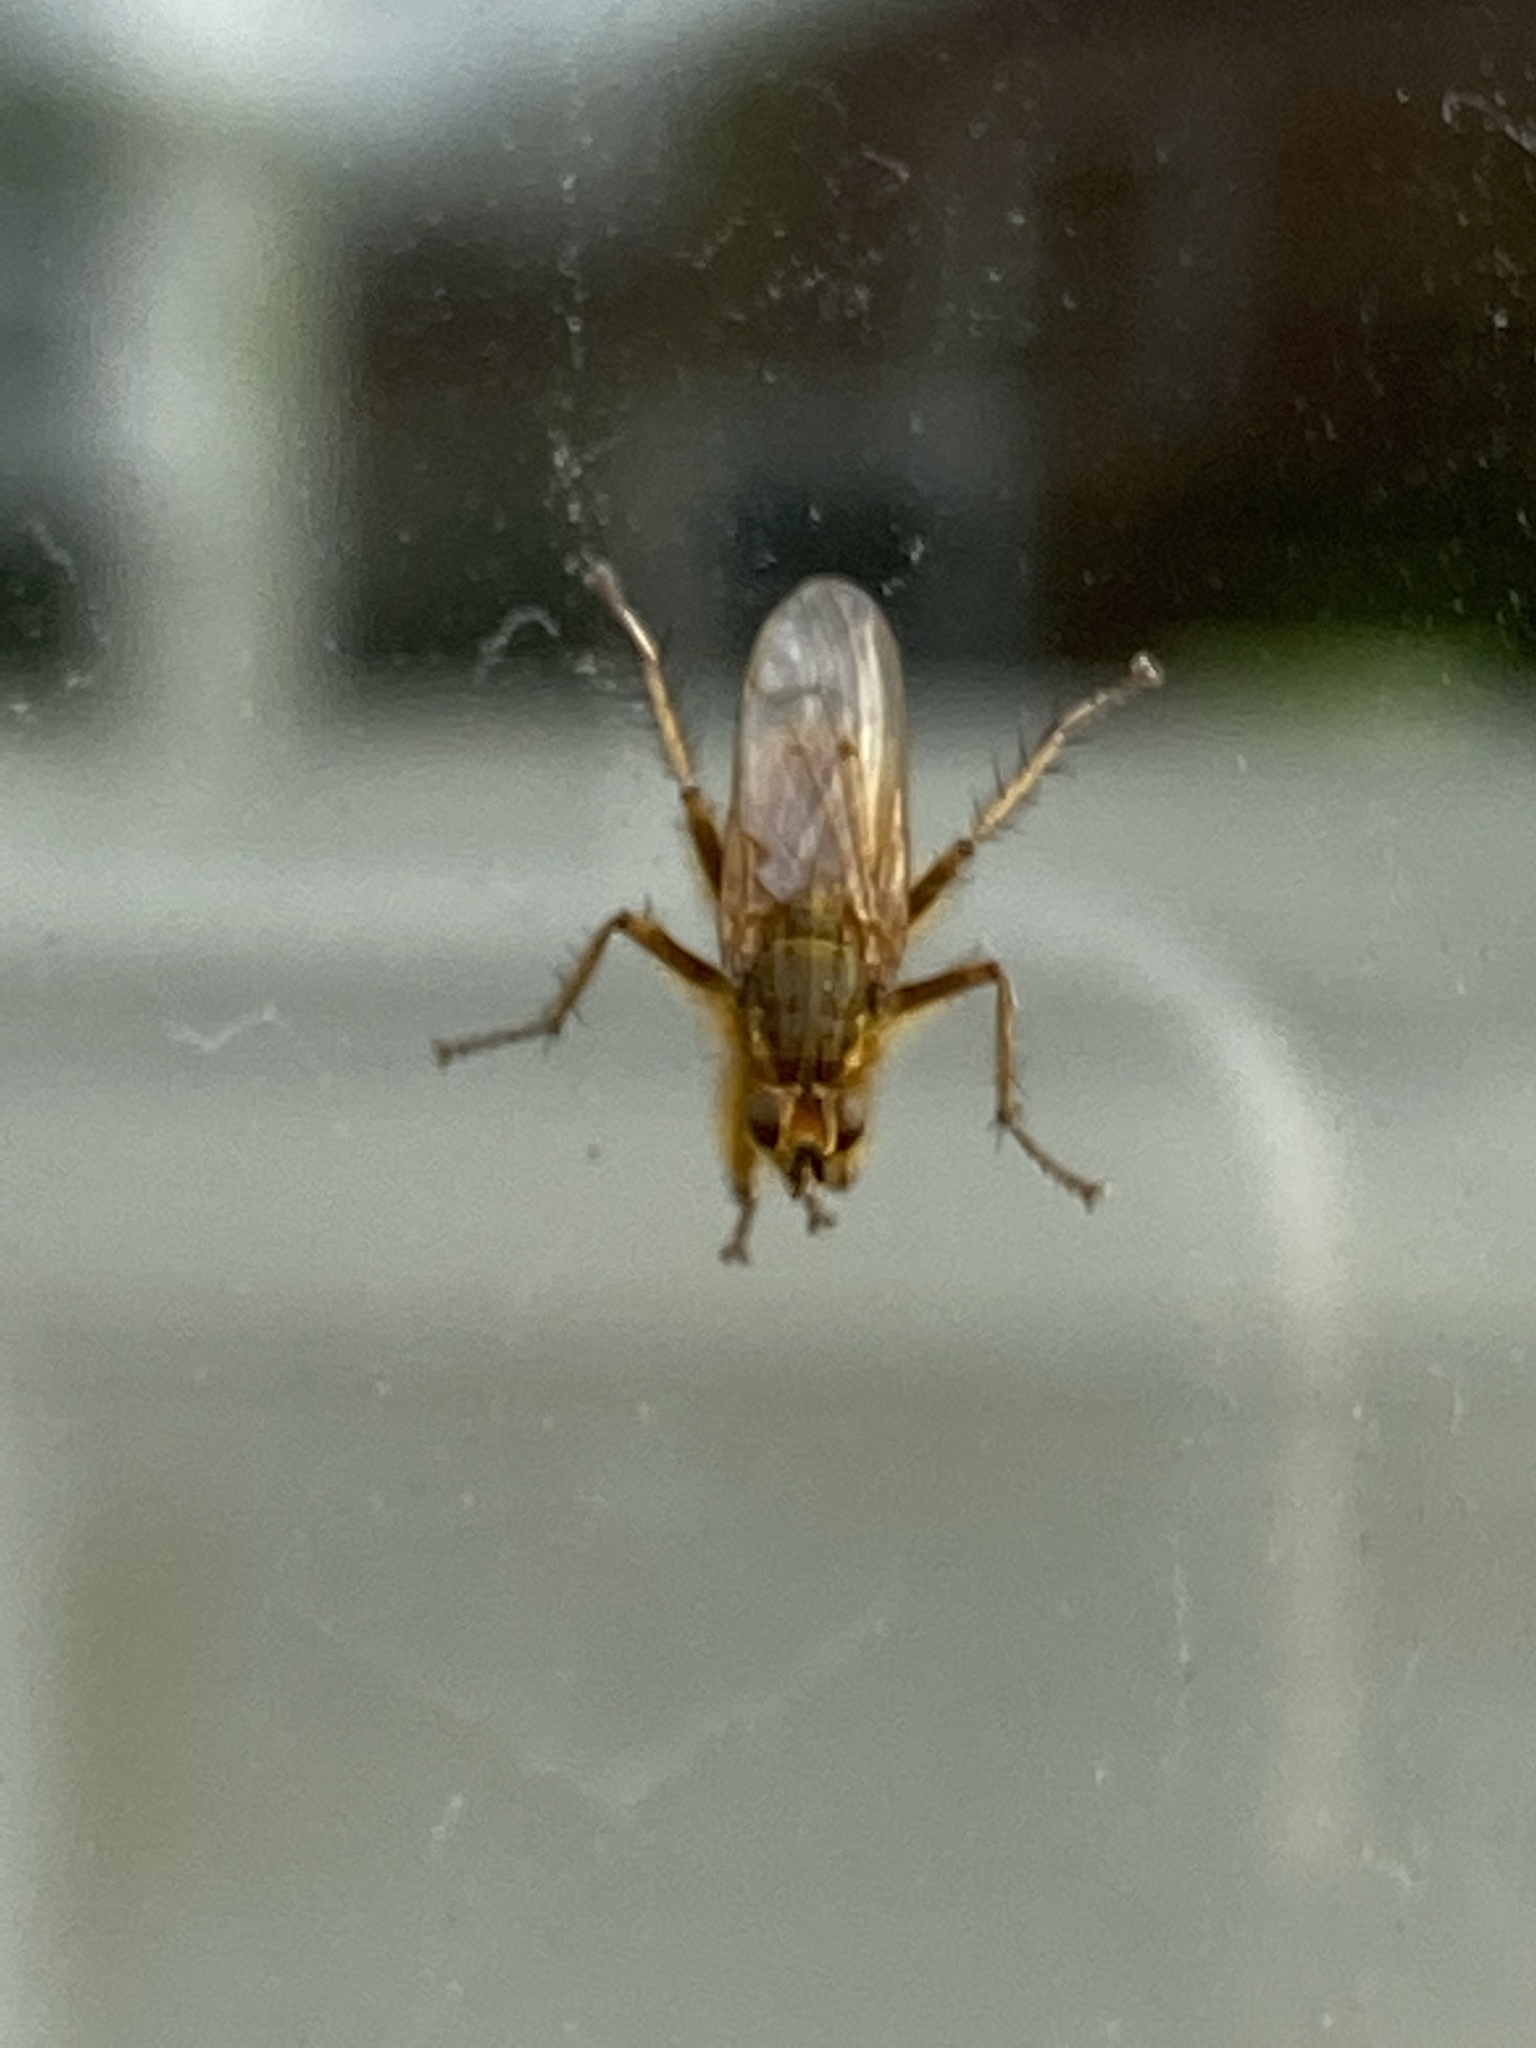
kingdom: Animalia
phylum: Arthropoda
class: Insecta
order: Diptera
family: Scathophagidae
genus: Scathophaga
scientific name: Scathophaga stercoraria
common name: Yellow dung fly
